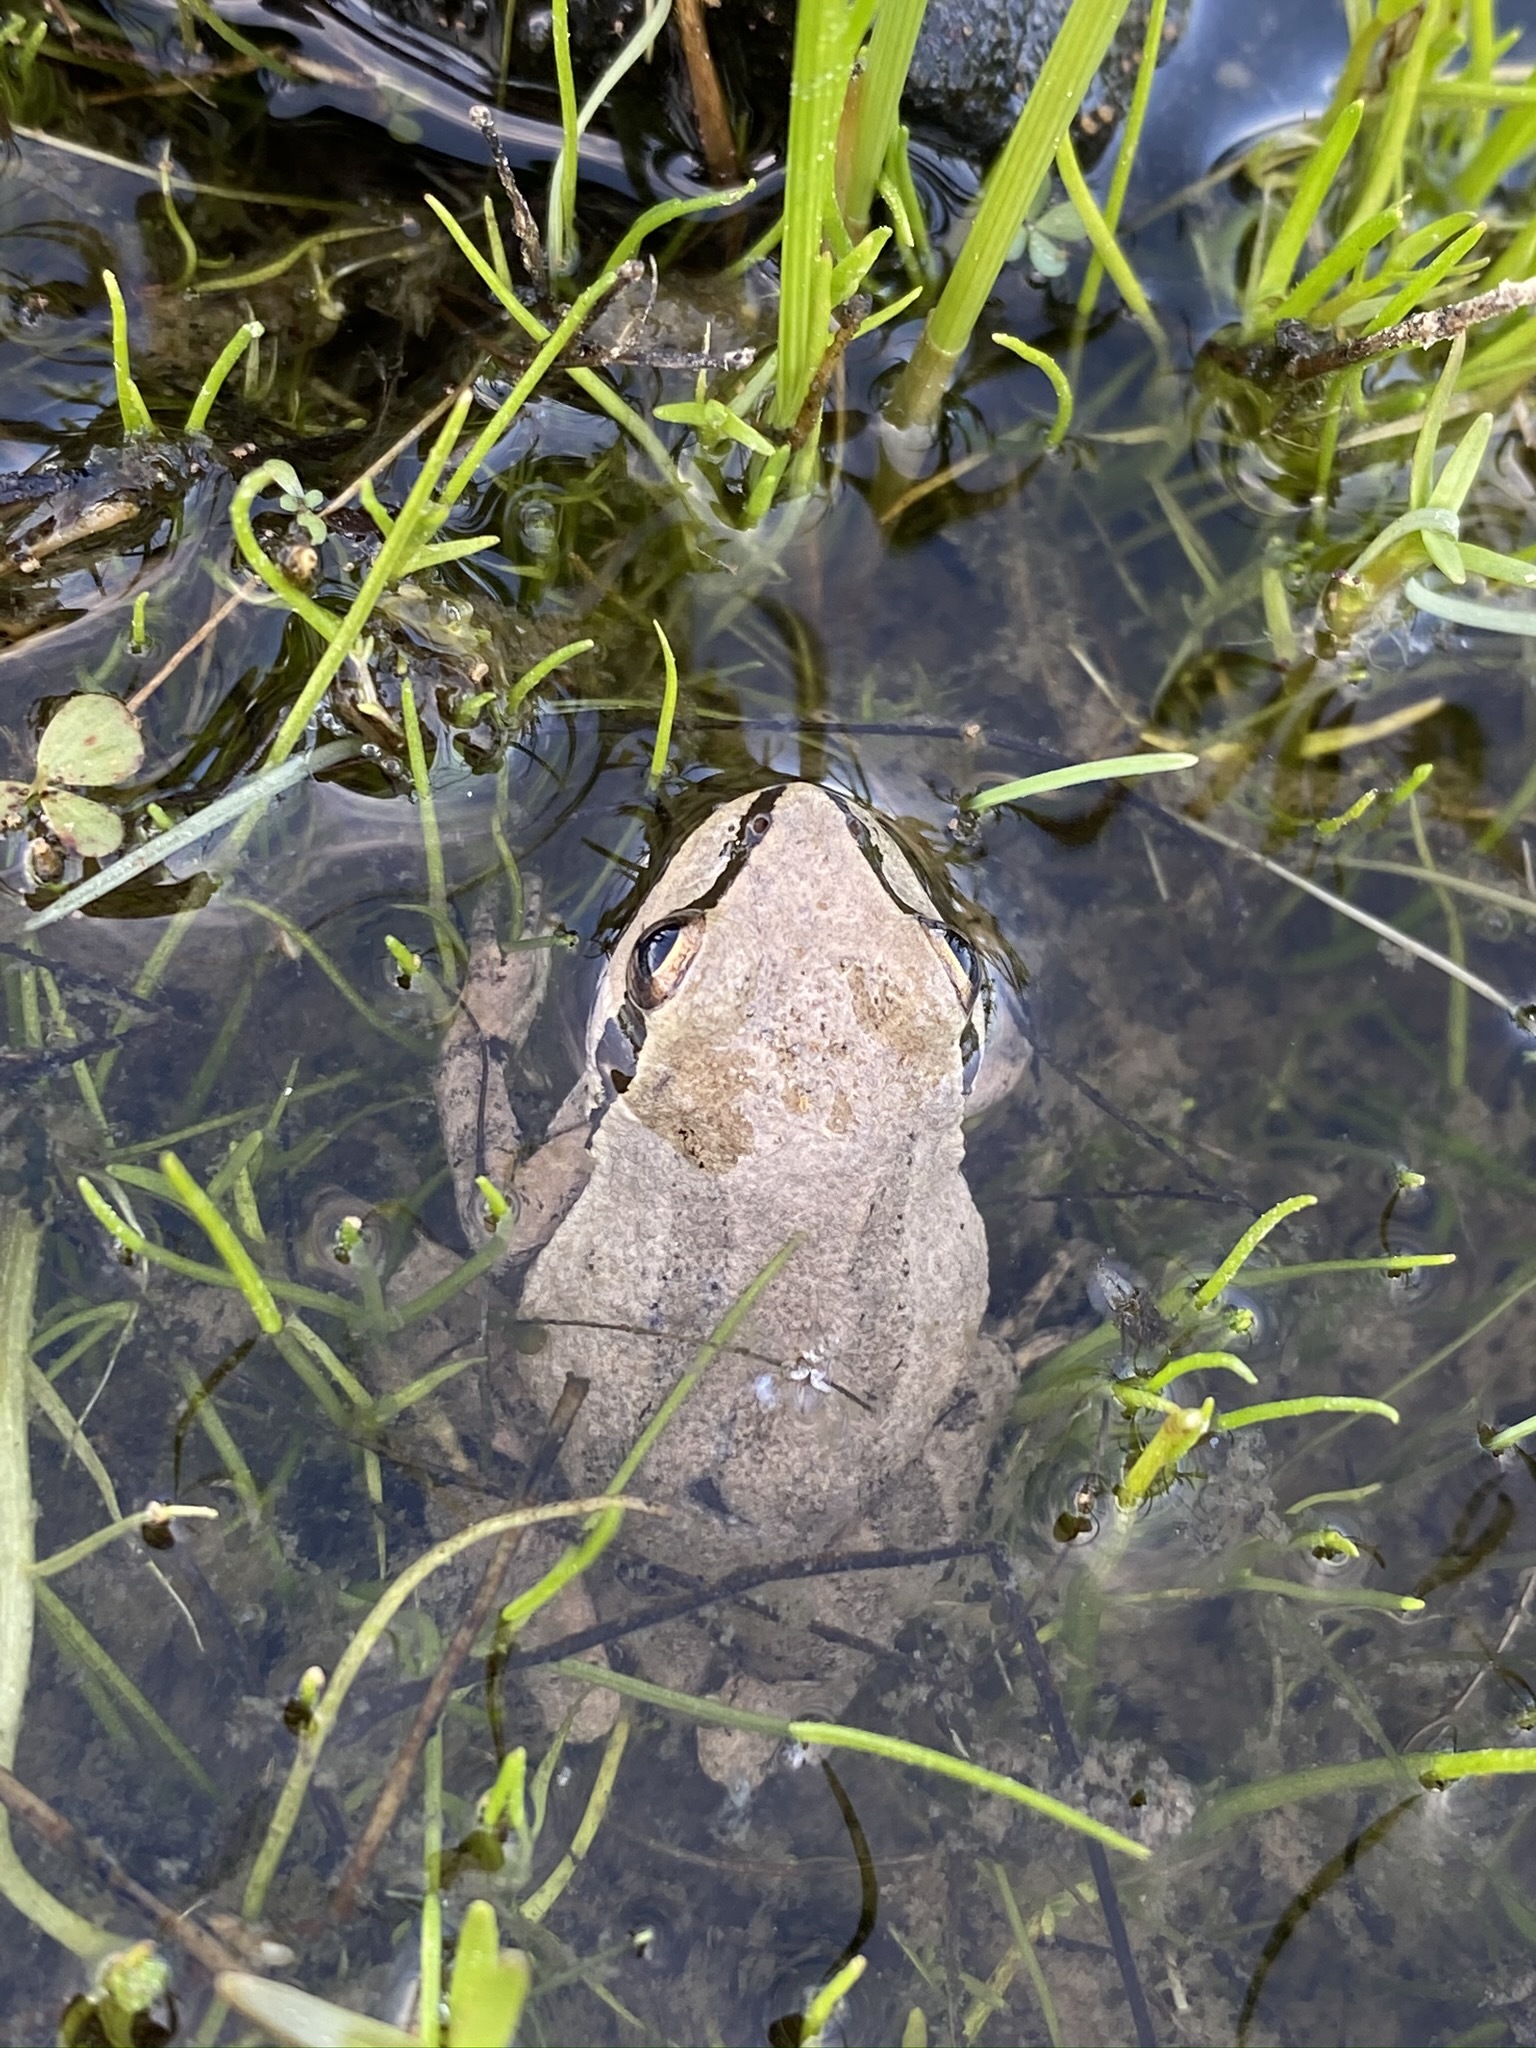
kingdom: Animalia
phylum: Chordata
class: Amphibia
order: Anura
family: Hylidae
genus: Pseudacris
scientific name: Pseudacris regilla
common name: Pacific chorus frog
